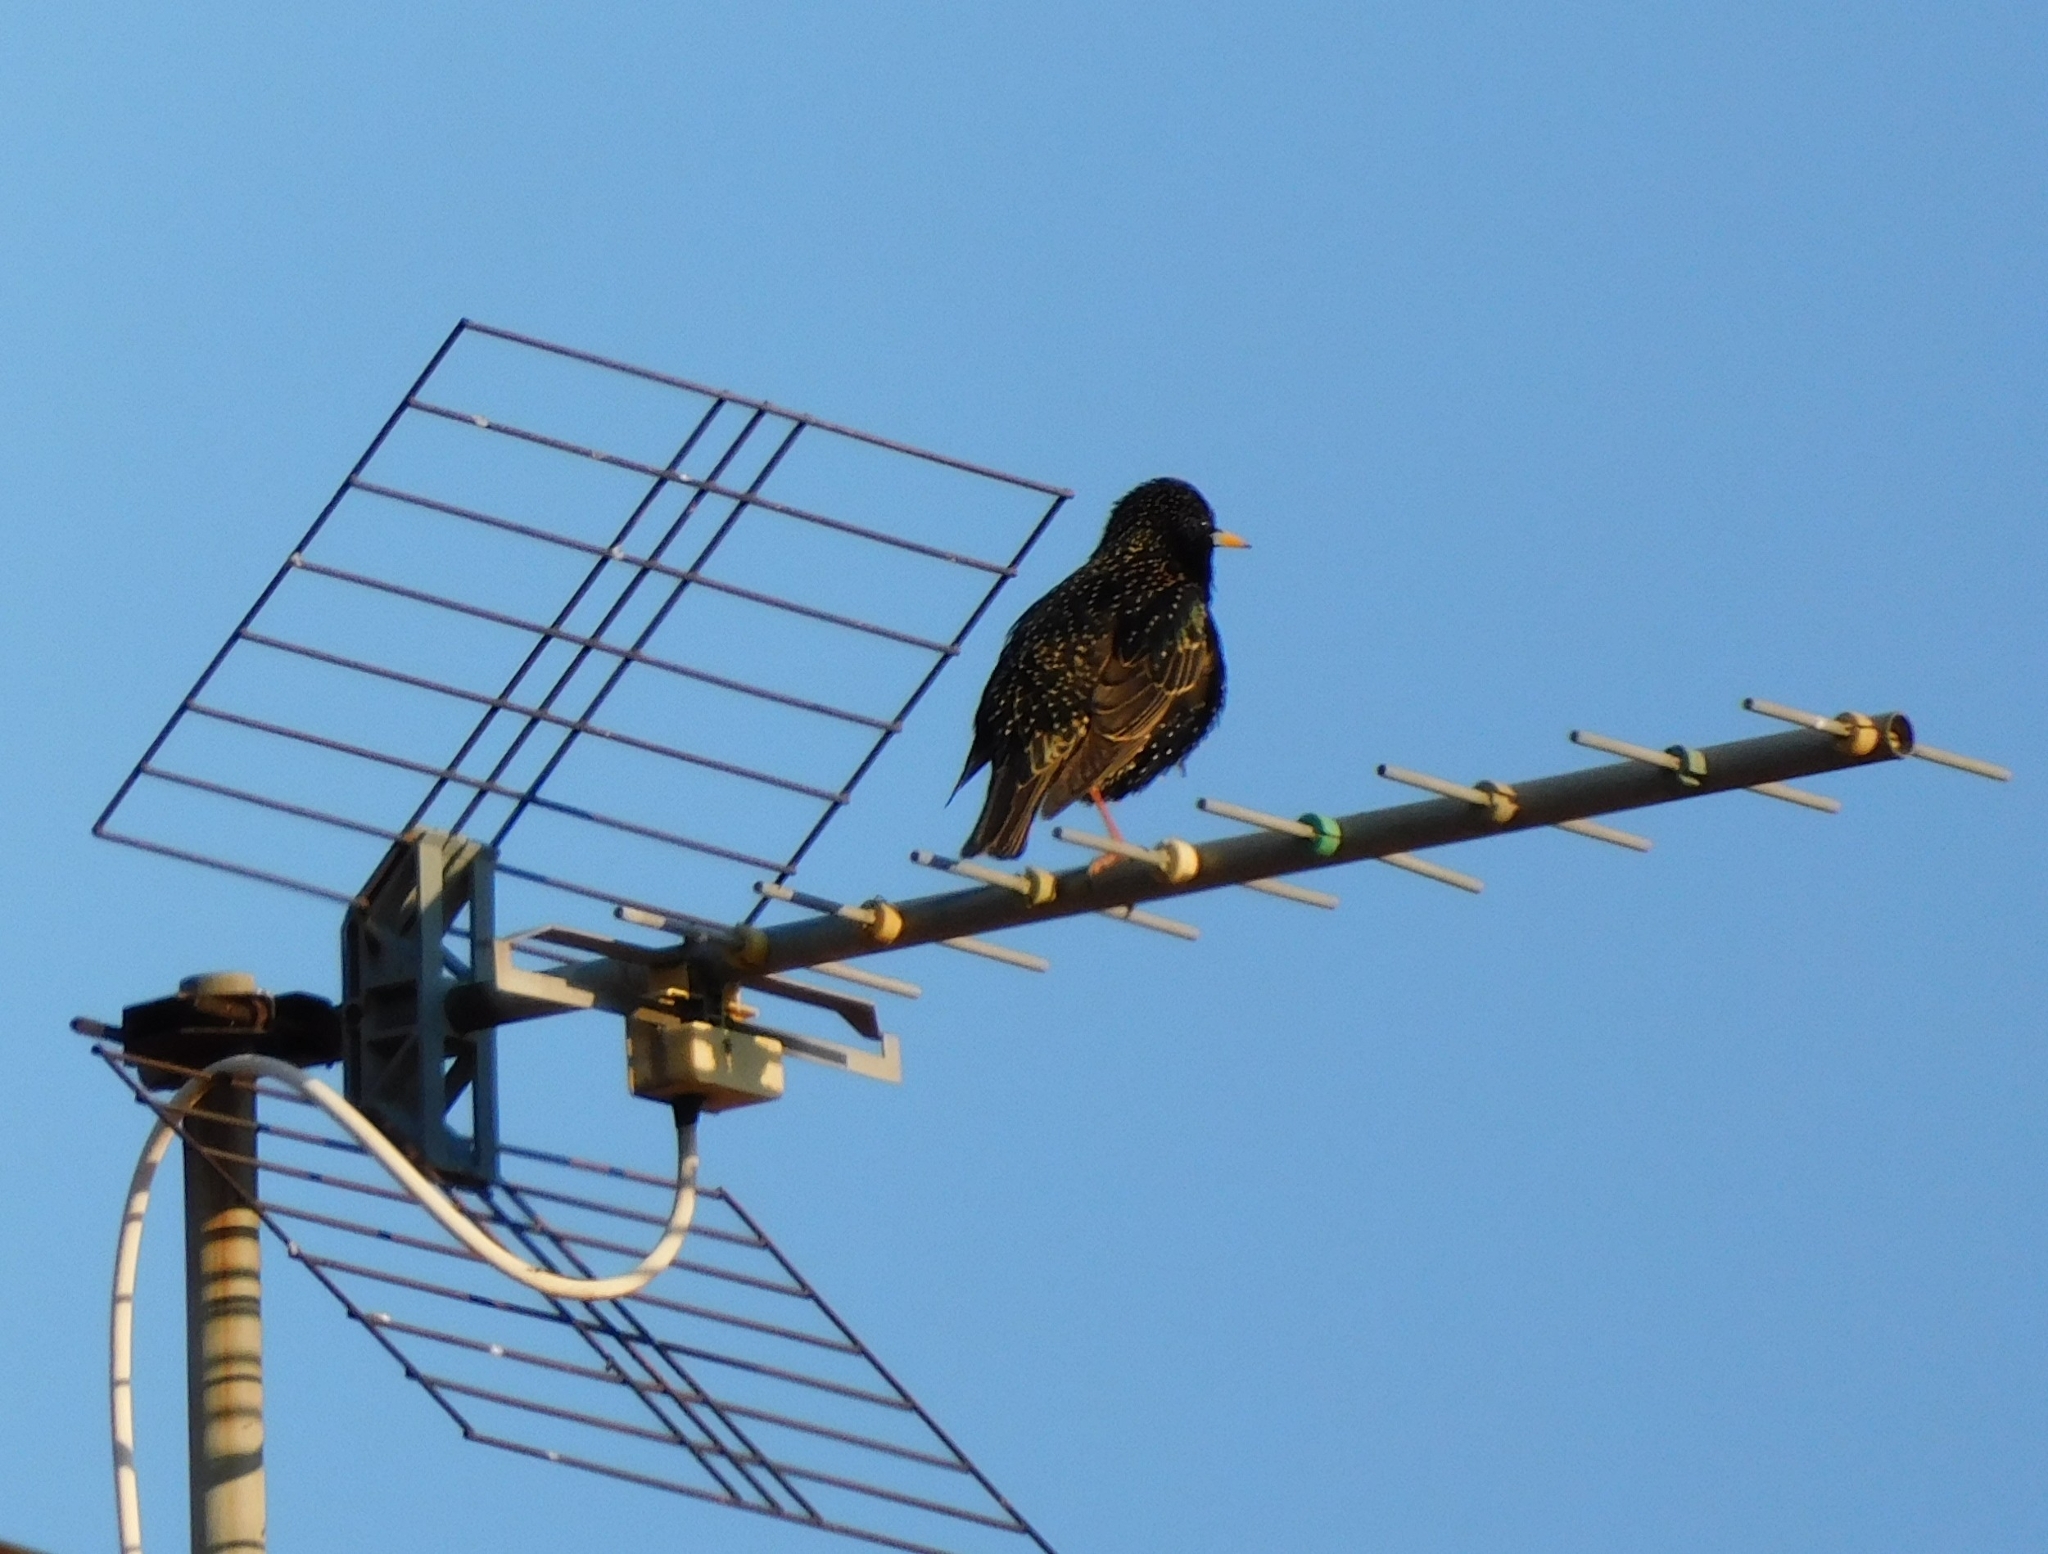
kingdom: Animalia
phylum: Chordata
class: Aves
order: Passeriformes
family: Sturnidae
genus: Sturnus
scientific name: Sturnus vulgaris
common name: Common starling
